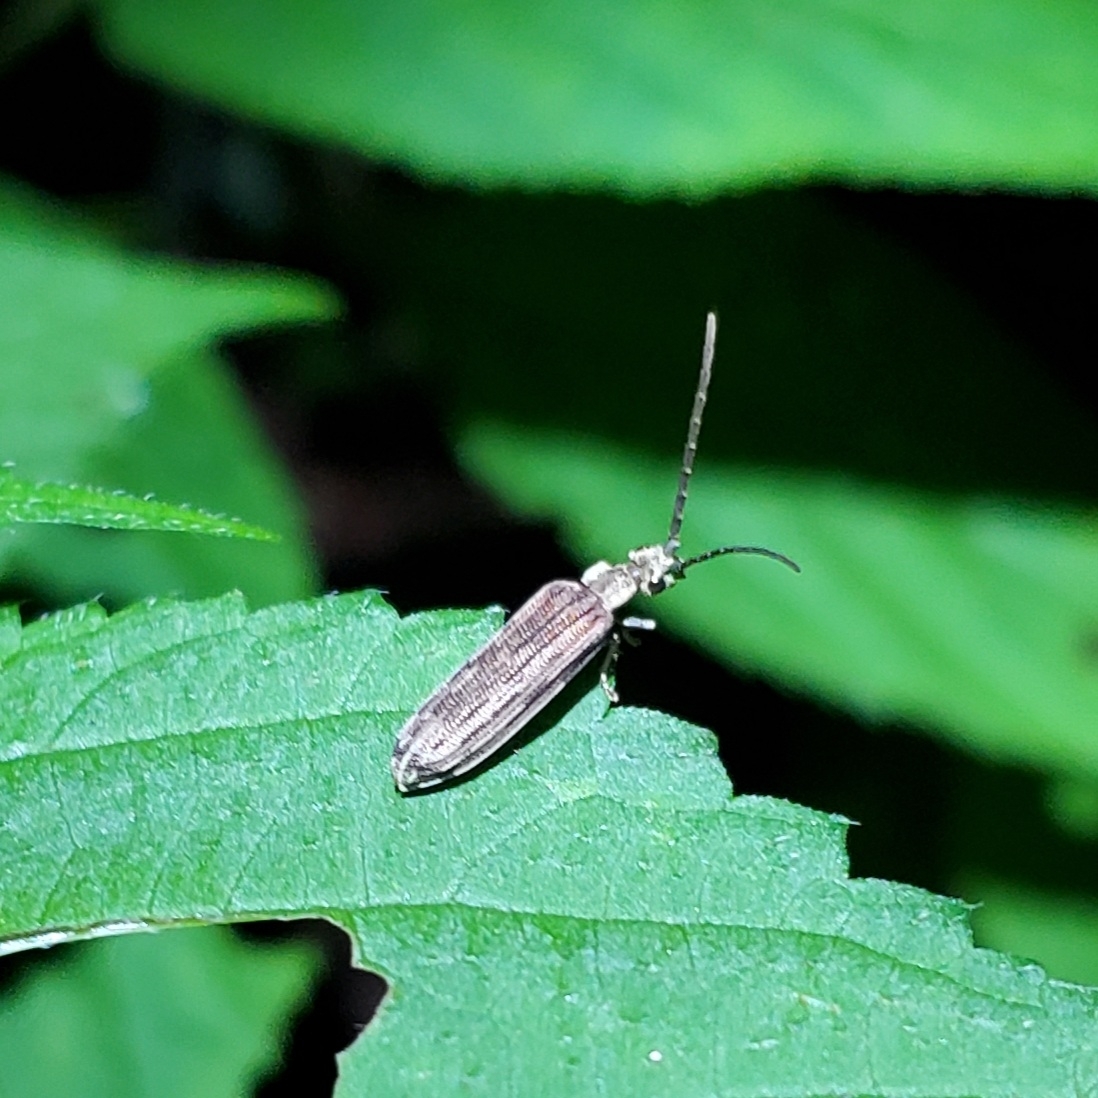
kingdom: Animalia
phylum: Arthropoda
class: Insecta
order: Coleoptera
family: Cupedidae
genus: Tenomerga
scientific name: Tenomerga cinerea
